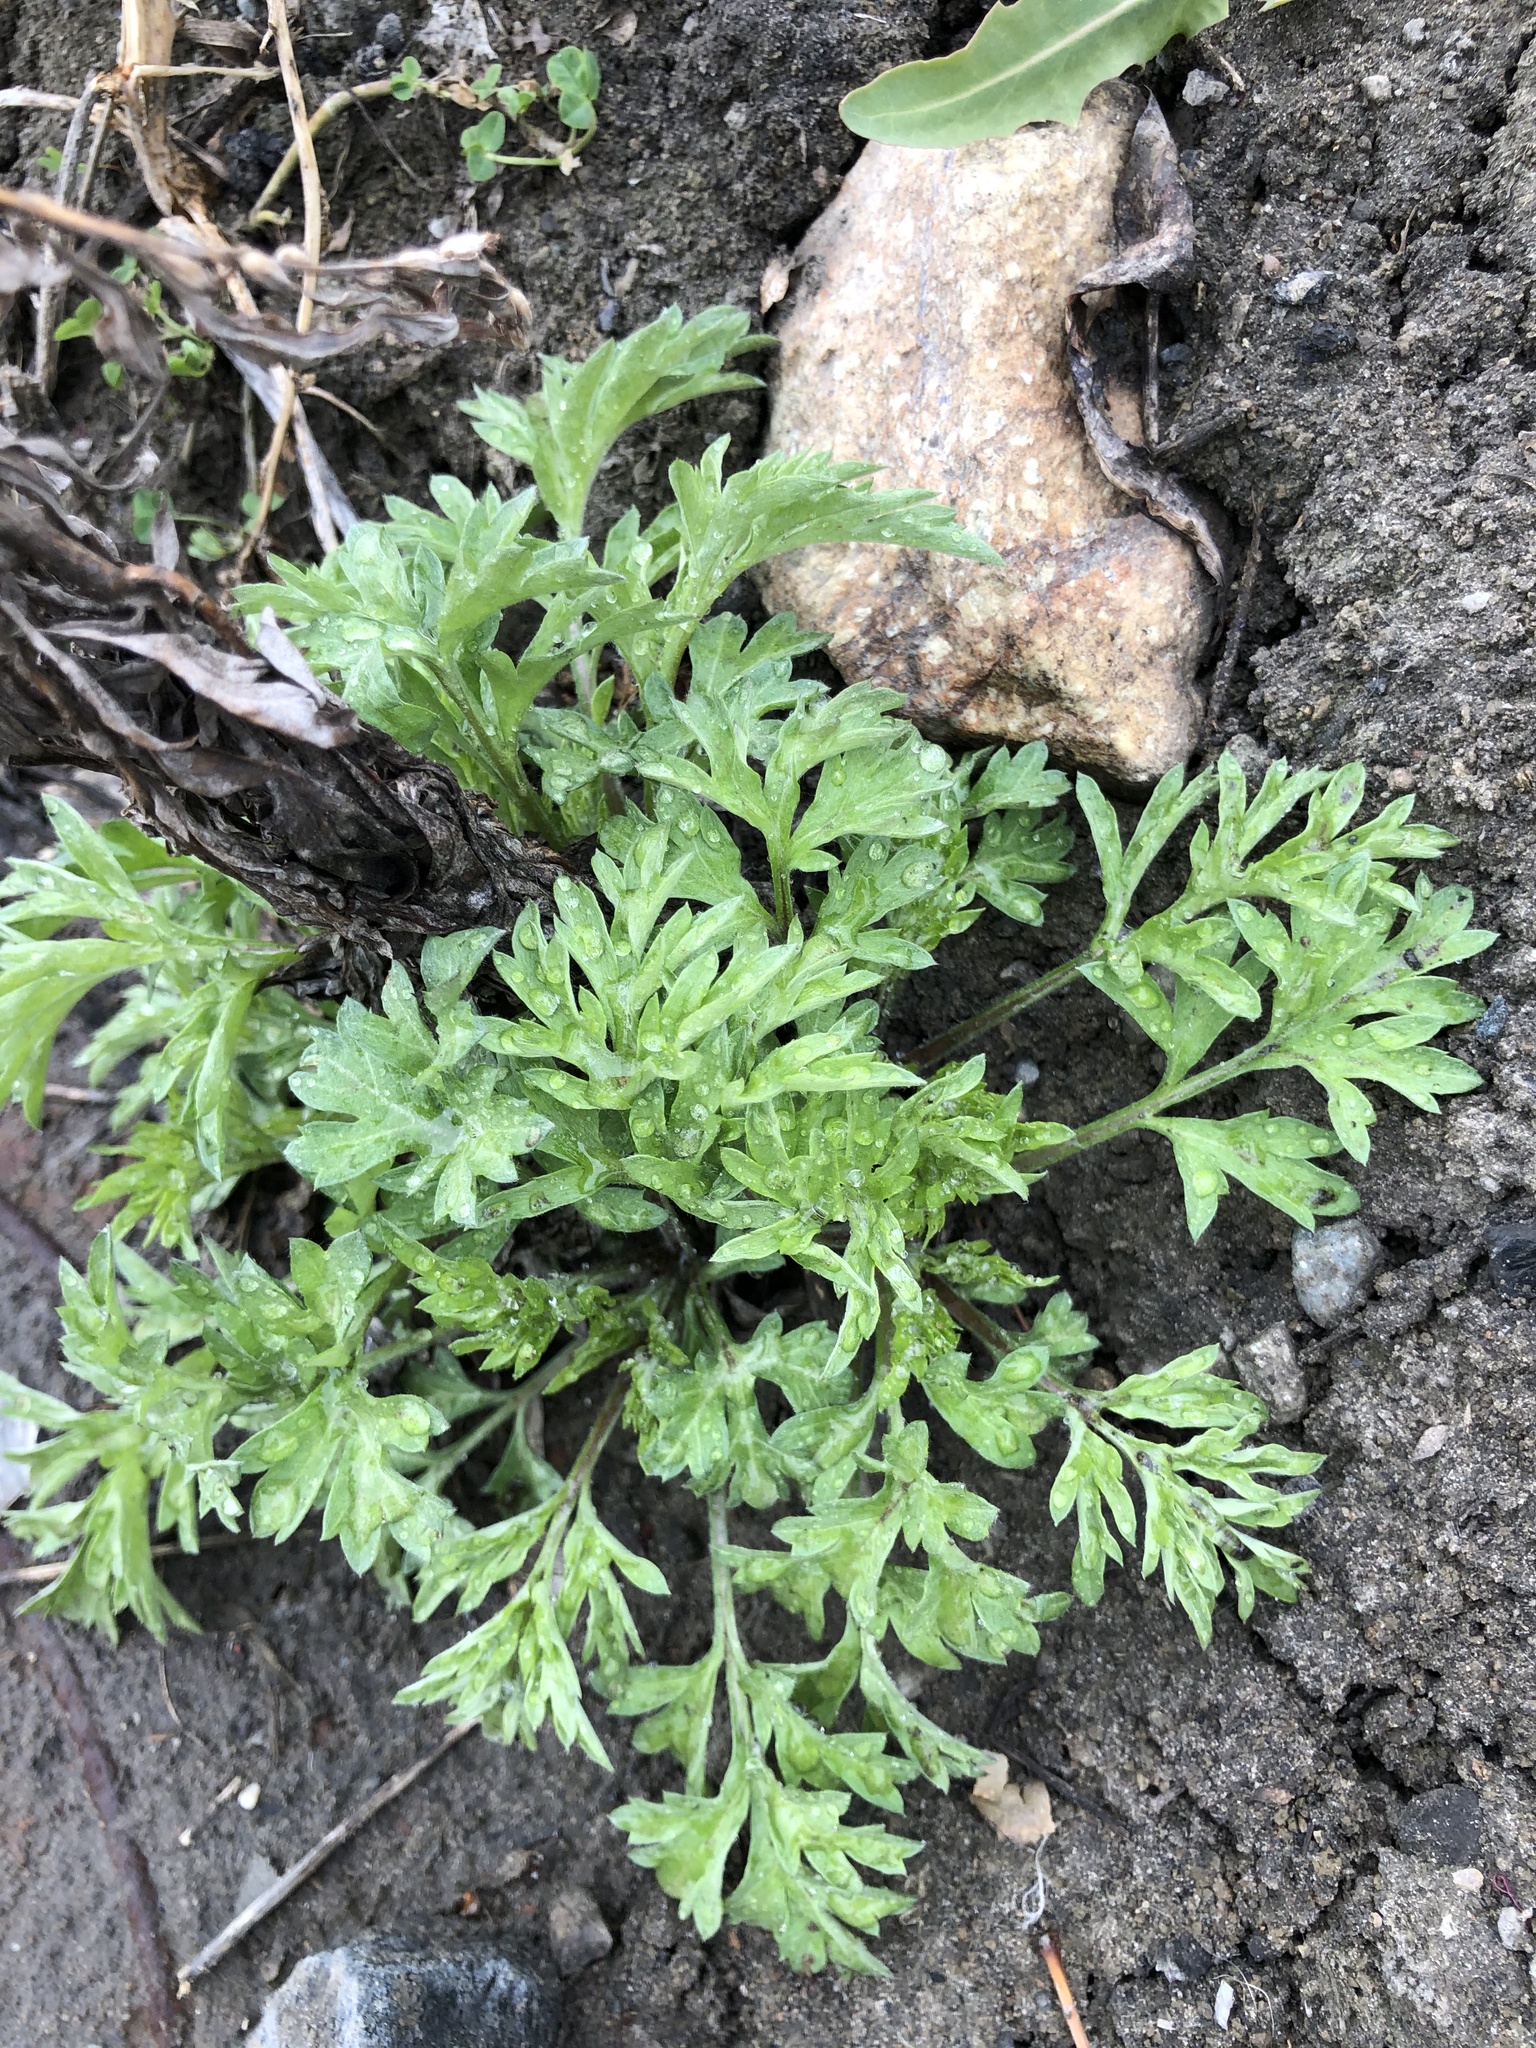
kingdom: Plantae
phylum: Tracheophyta
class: Magnoliopsida
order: Asterales
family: Asteraceae
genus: Artemisia
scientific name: Artemisia vulgaris
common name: Mugwort
